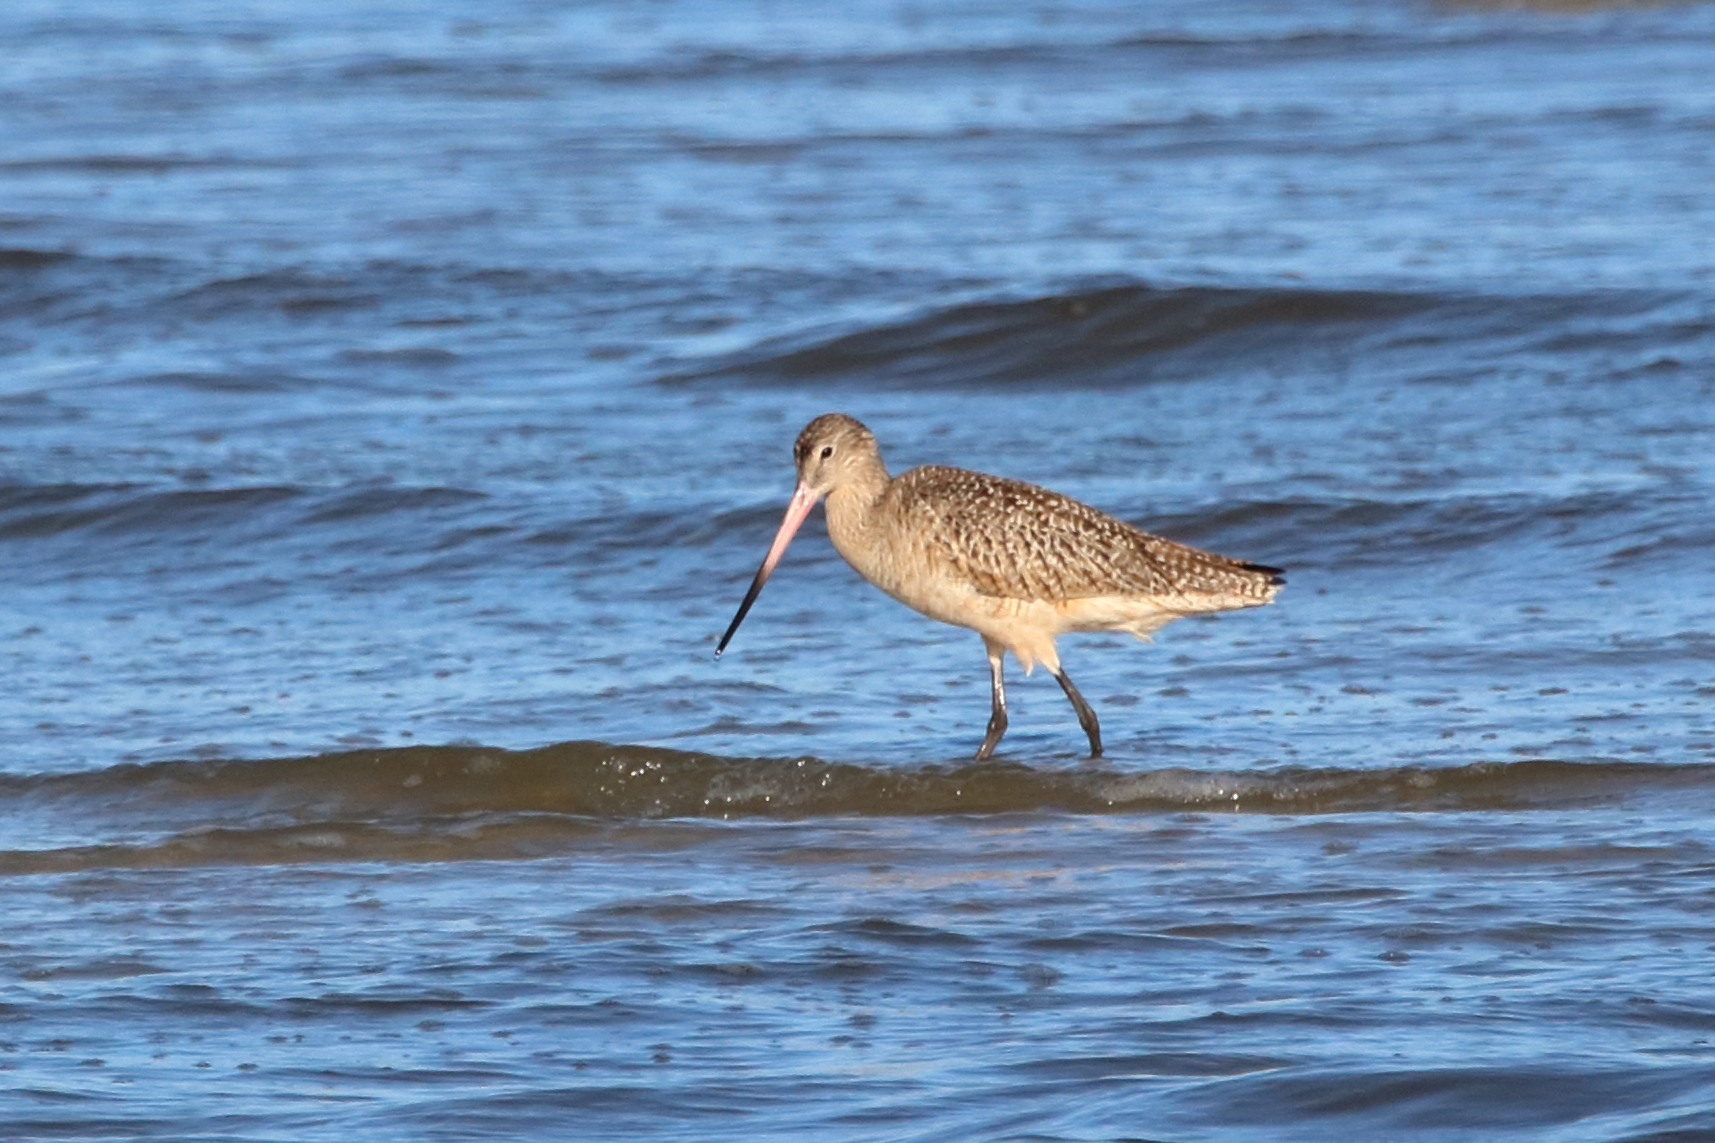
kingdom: Animalia
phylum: Chordata
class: Aves
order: Charadriiformes
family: Scolopacidae
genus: Limosa
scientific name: Limosa fedoa
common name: Marbled godwit
